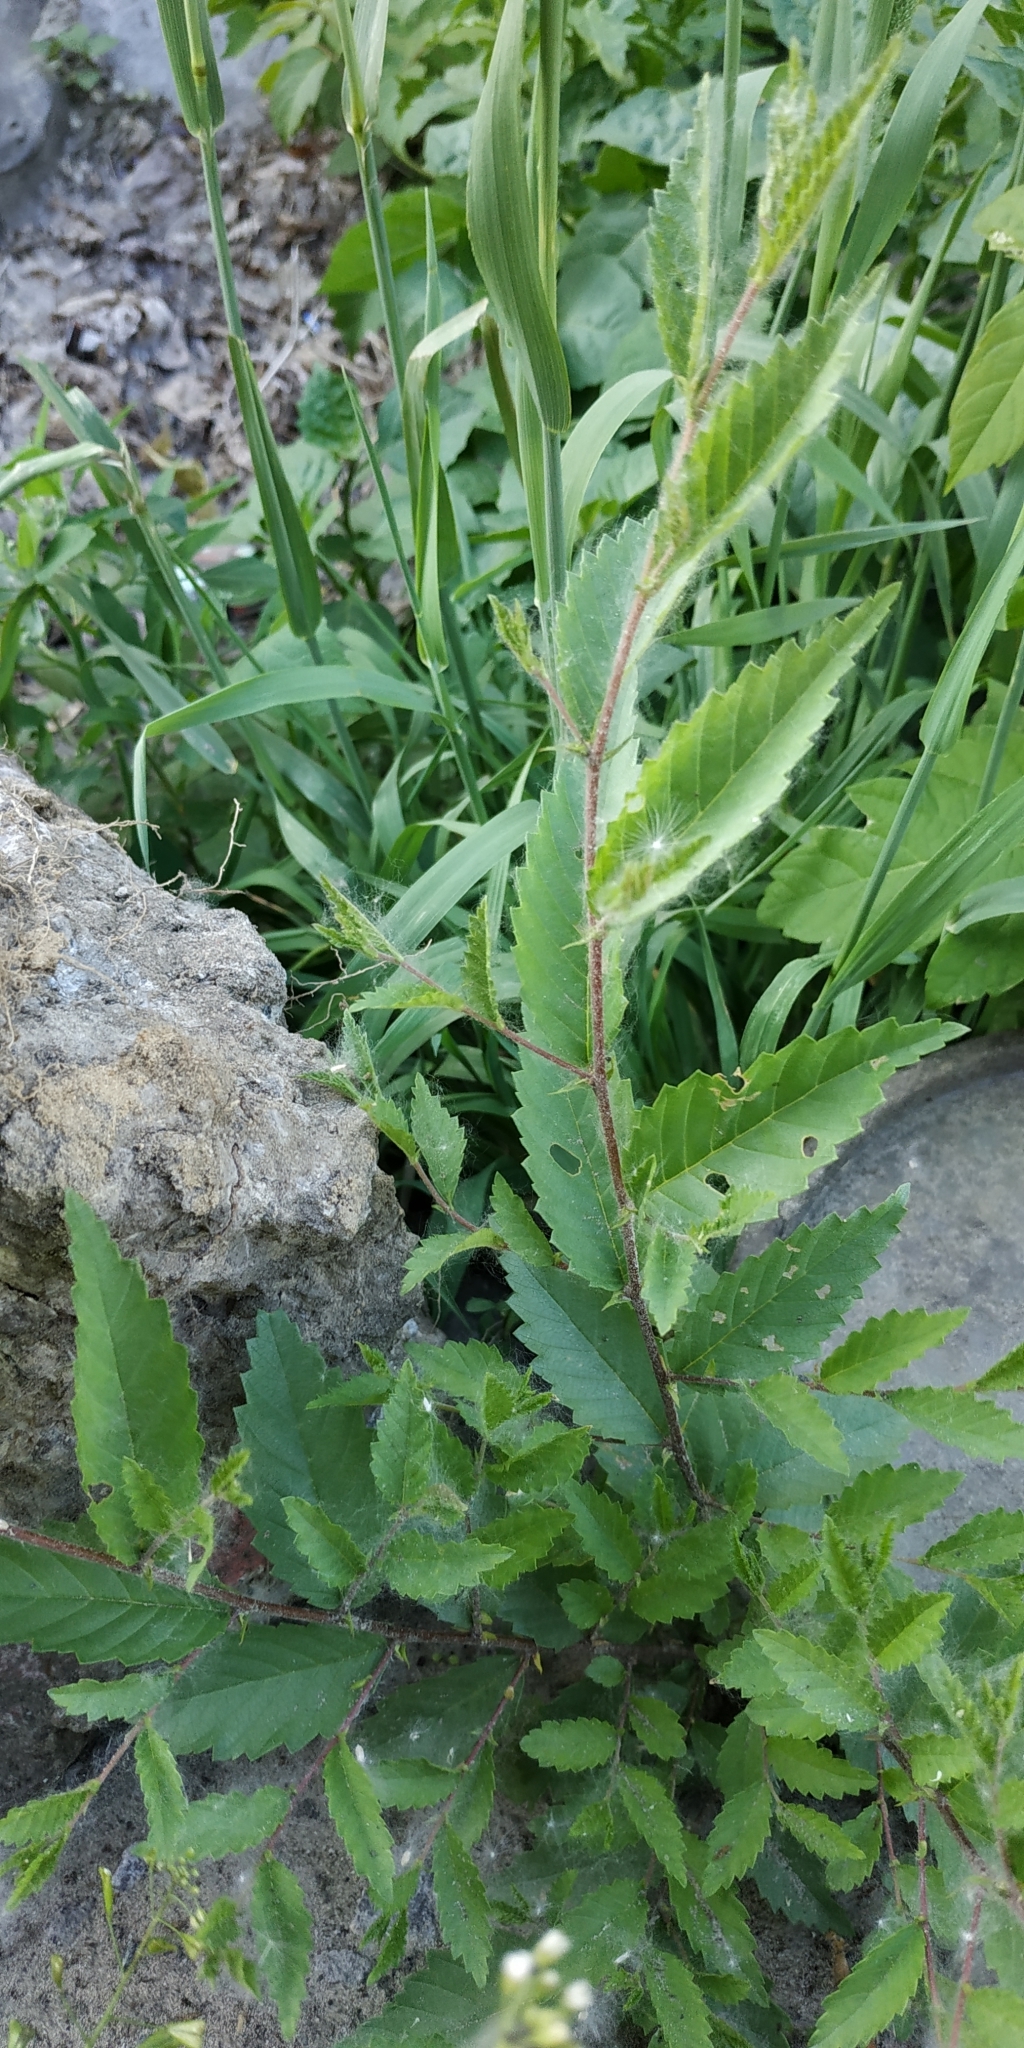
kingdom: Plantae
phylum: Tracheophyta
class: Magnoliopsida
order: Rosales
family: Ulmaceae
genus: Ulmus
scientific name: Ulmus pumila
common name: Siberian elm
